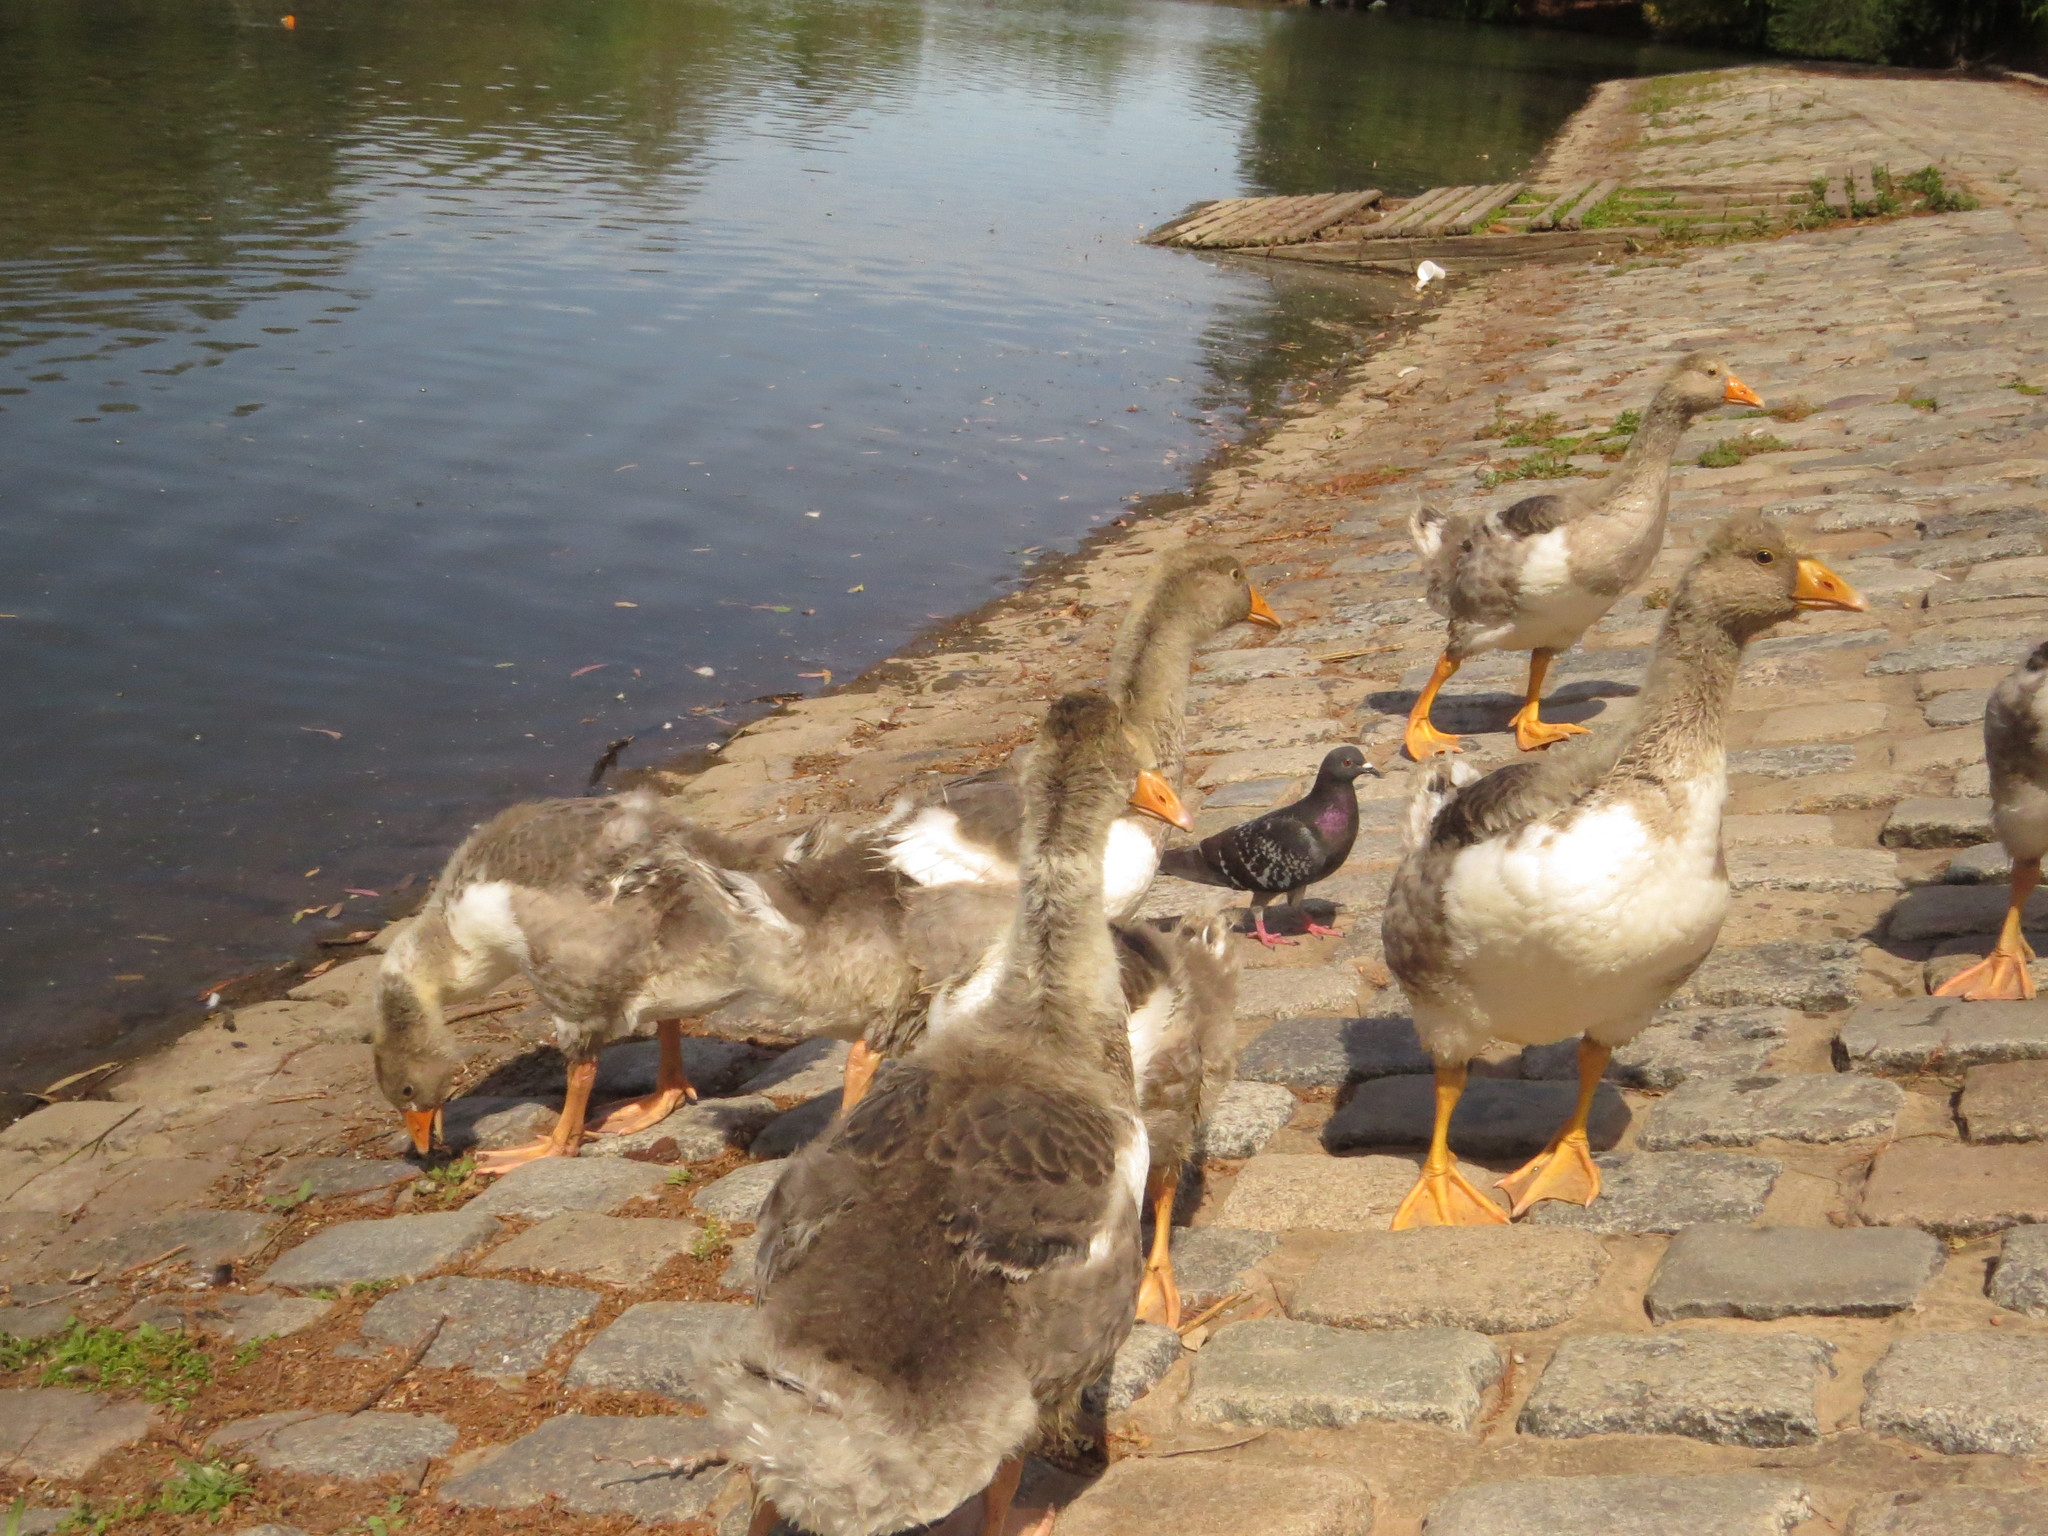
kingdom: Animalia
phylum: Chordata
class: Aves
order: Anseriformes
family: Anatidae
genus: Anser
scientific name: Anser anser
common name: Greylag goose
